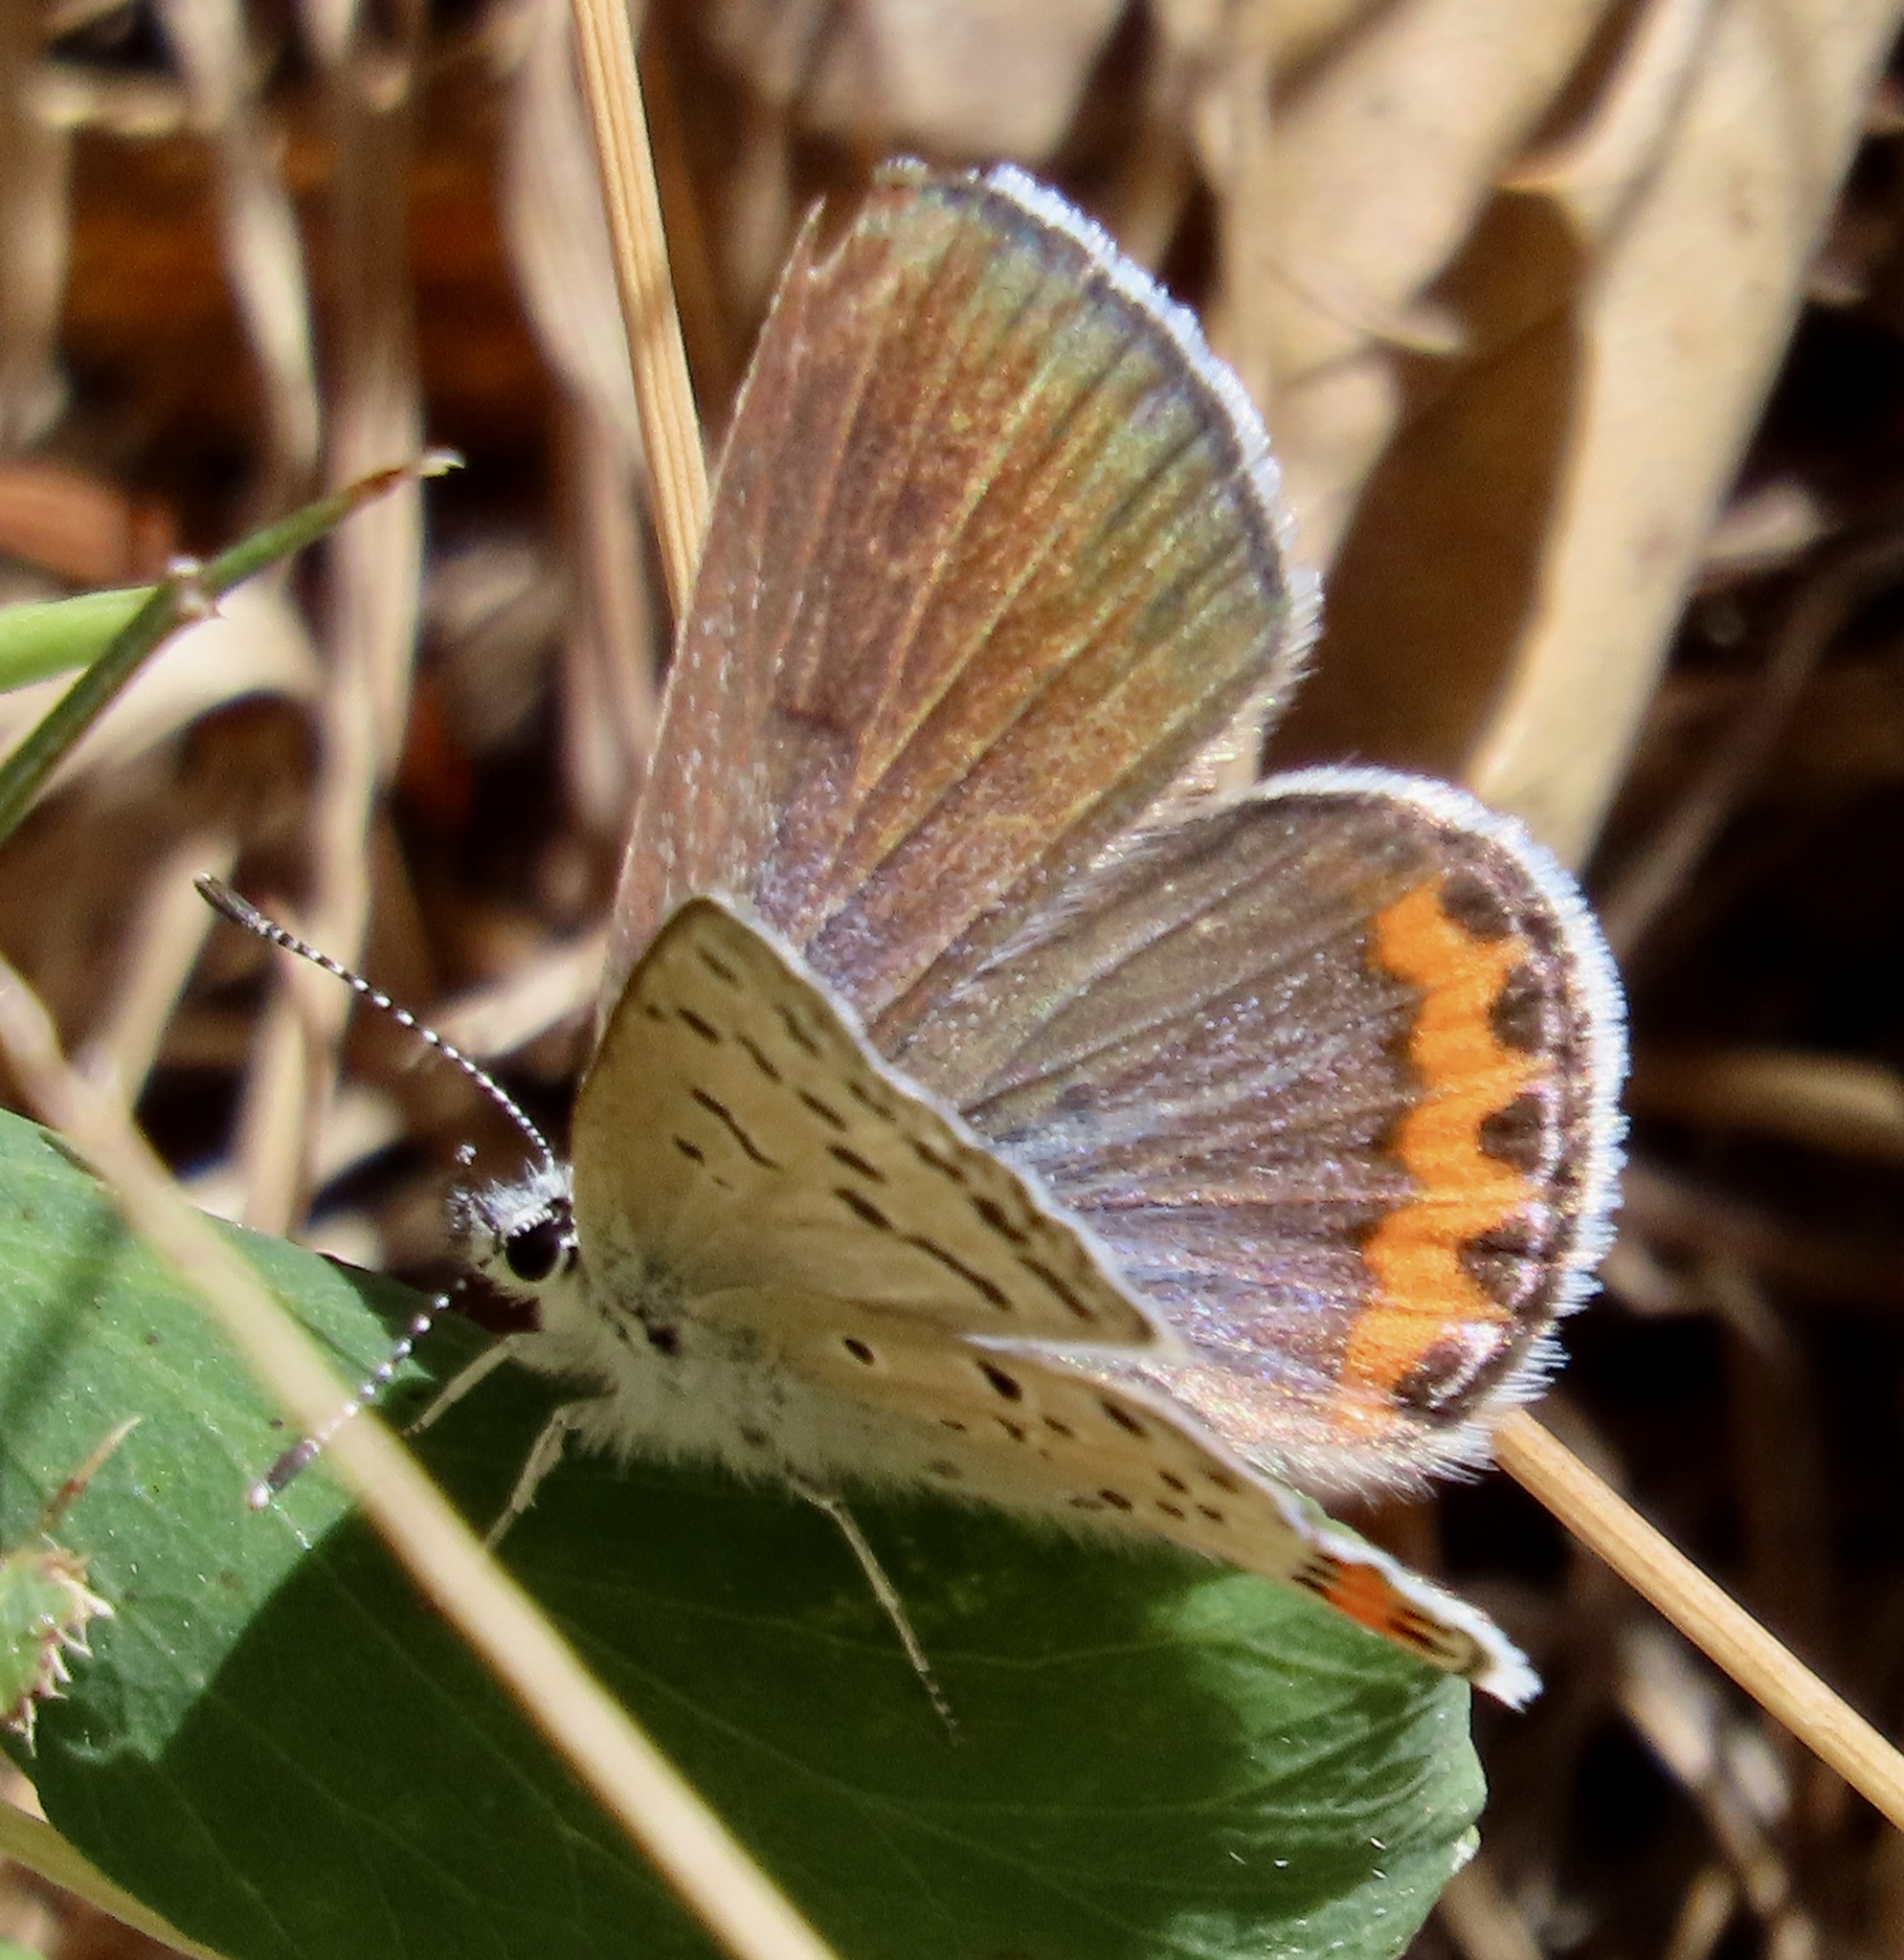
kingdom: Animalia
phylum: Arthropoda
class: Insecta
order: Lepidoptera
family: Lycaenidae
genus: Icaricia
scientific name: Icaricia acmon
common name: Acmon blue
